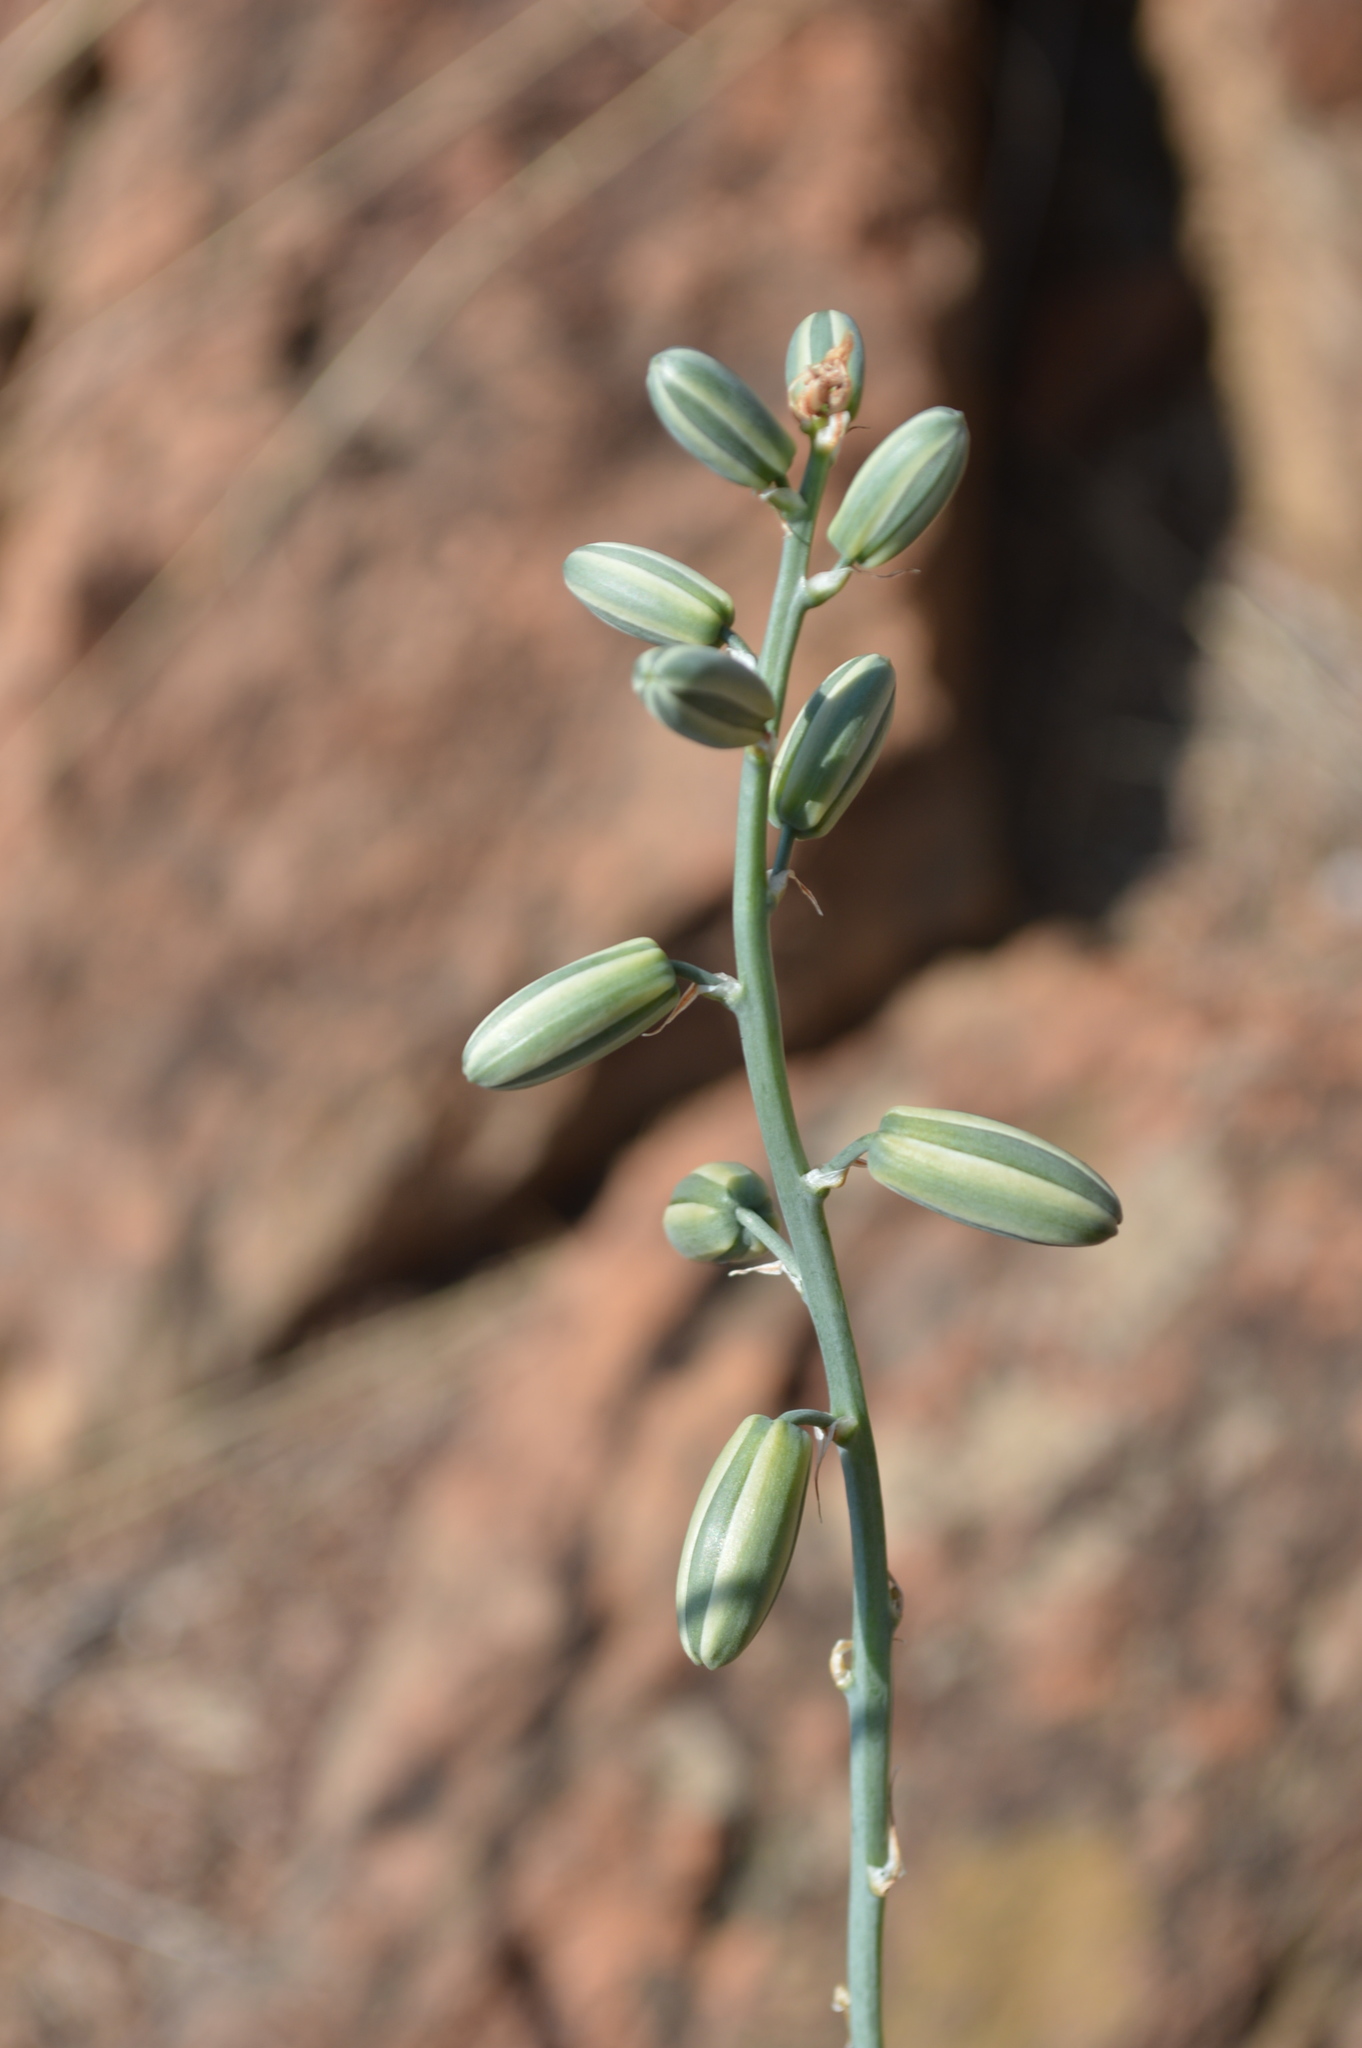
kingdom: Plantae
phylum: Tracheophyta
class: Liliopsida
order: Asparagales
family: Asparagaceae
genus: Albuca
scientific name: Albuca glauca
